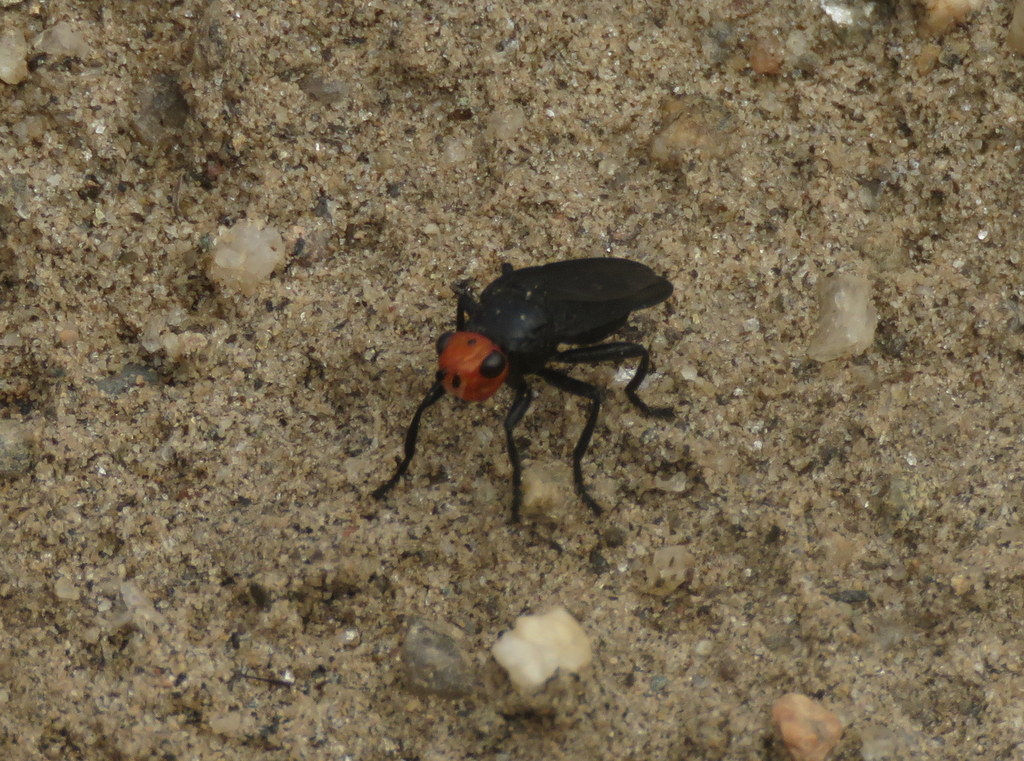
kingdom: Animalia
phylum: Arthropoda
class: Insecta
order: Diptera
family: Heleomyzidae
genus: Dichromya
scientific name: Dichromya sanguiniceps
